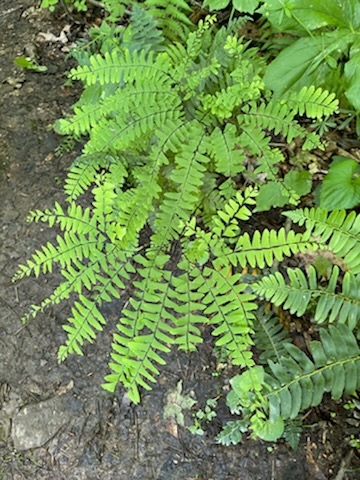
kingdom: Plantae
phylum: Tracheophyta
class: Polypodiopsida
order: Polypodiales
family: Pteridaceae
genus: Adiantum
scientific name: Adiantum pedatum
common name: Five-finger fern
